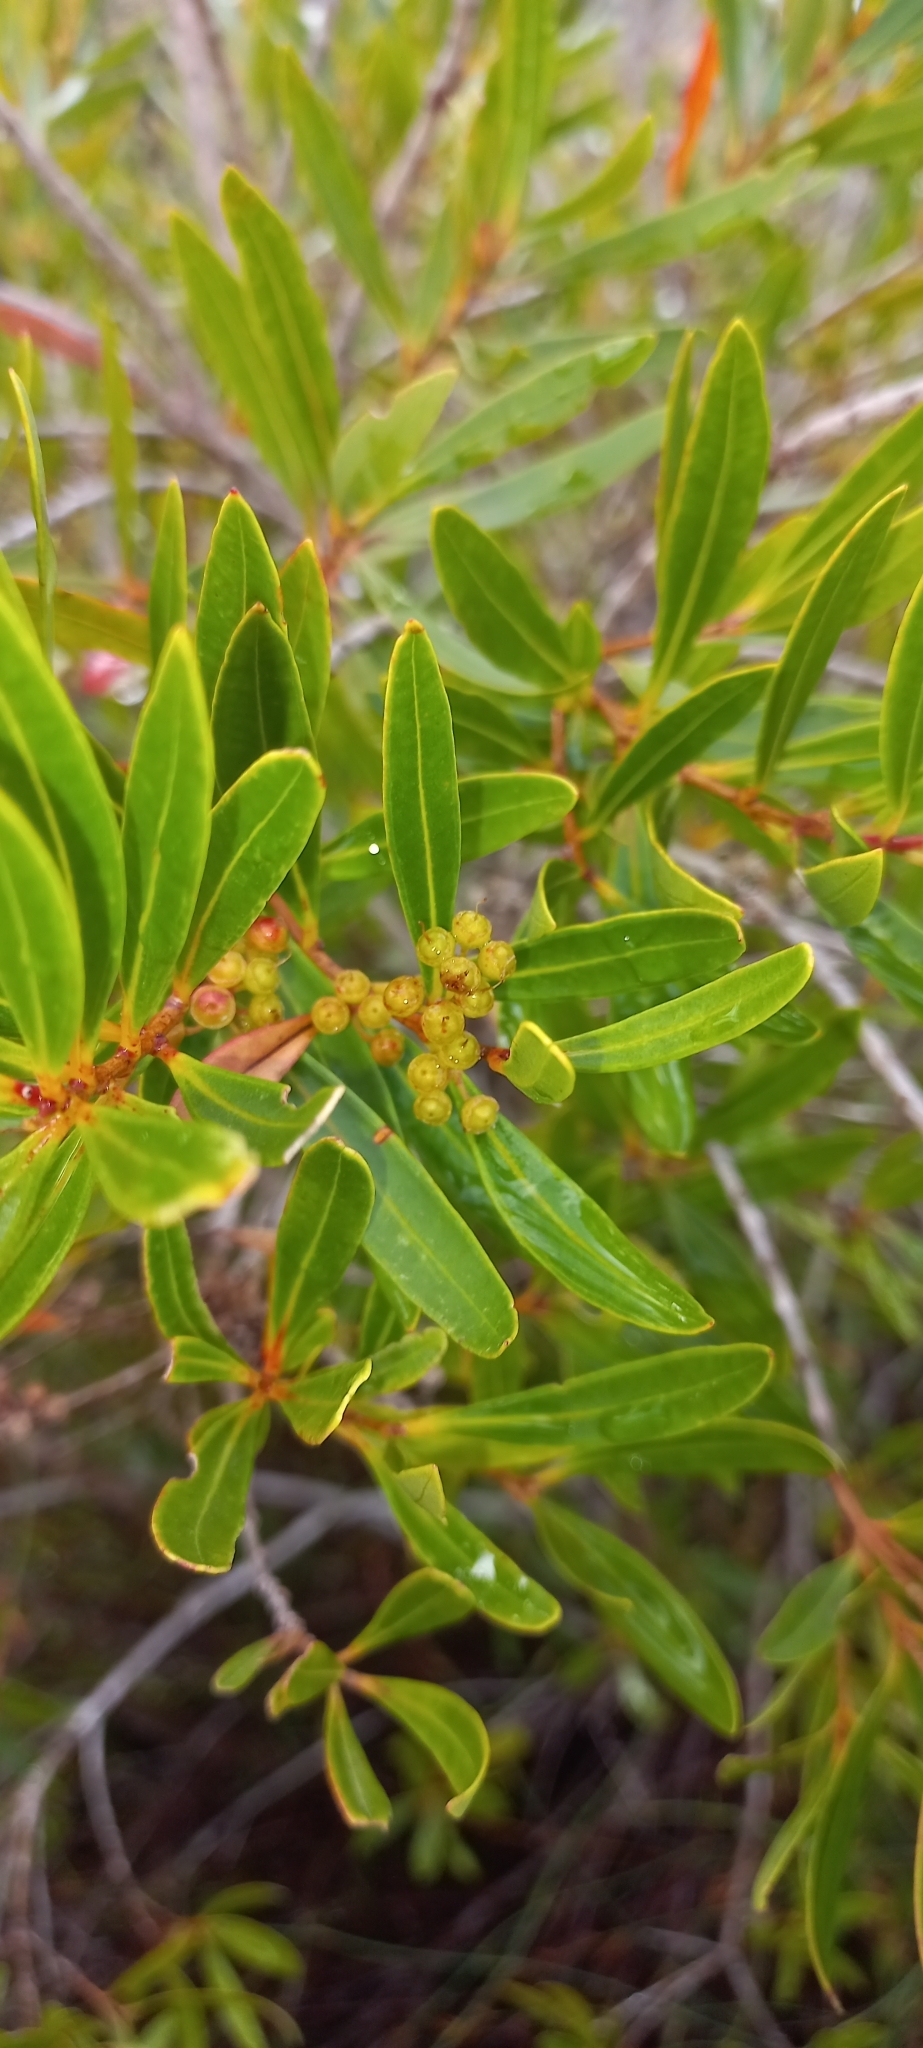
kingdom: Plantae
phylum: Tracheophyta
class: Magnoliopsida
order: Myrtales
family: Myrtaceae
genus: Callistemon
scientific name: Callistemon lanceolatus
